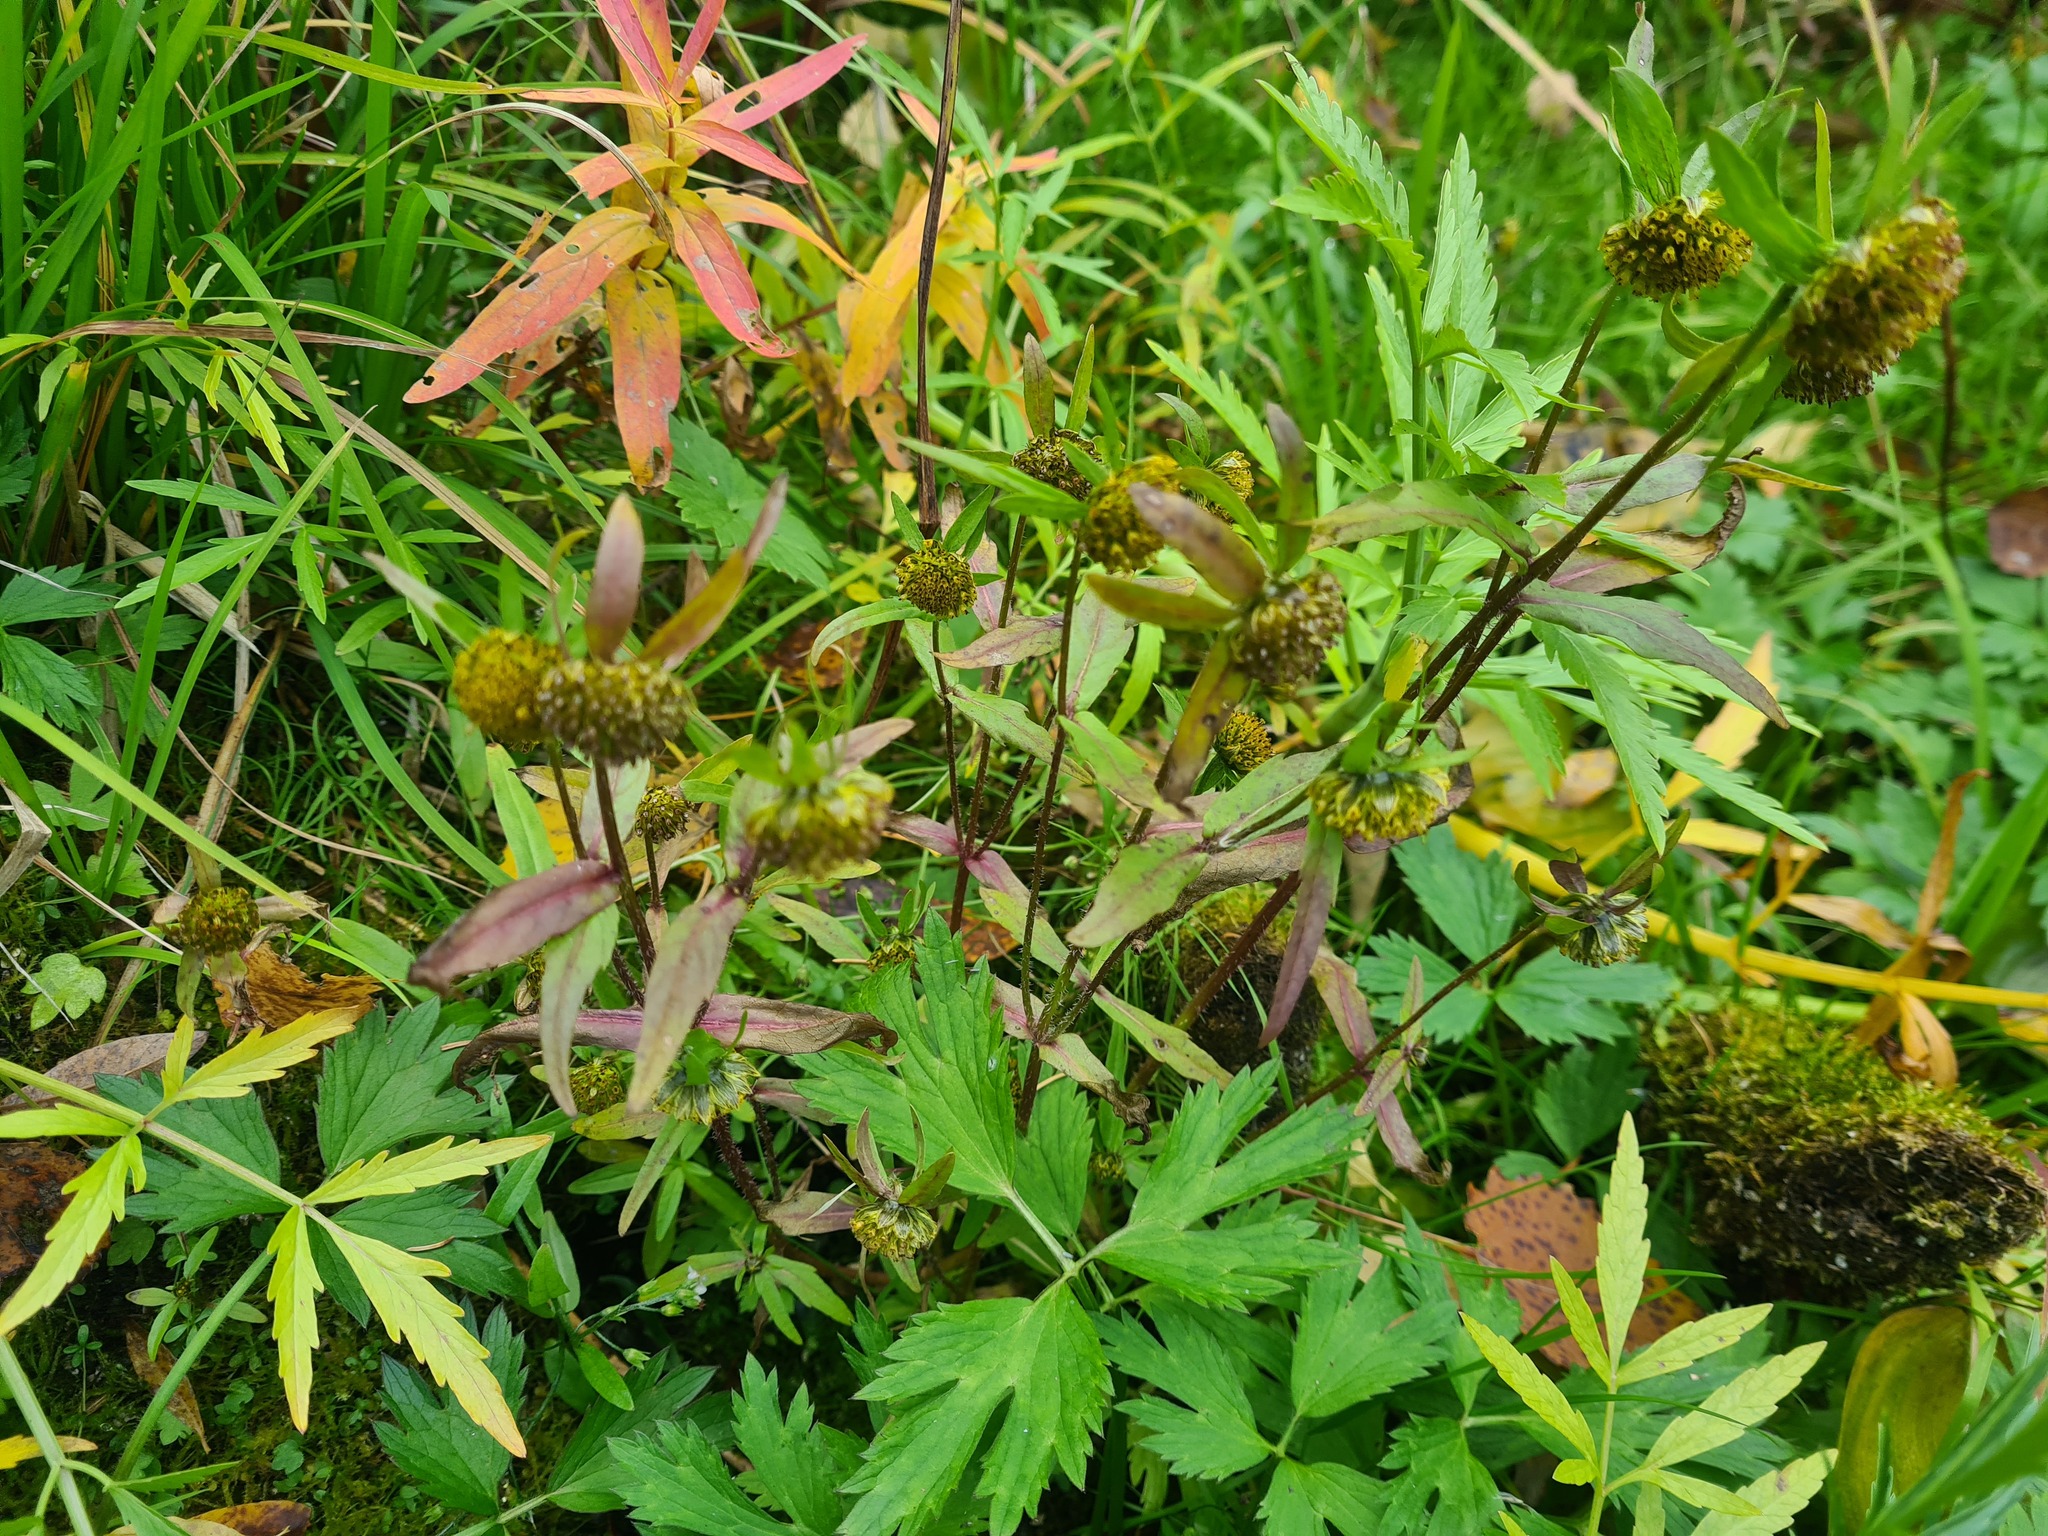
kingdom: Plantae
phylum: Tracheophyta
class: Magnoliopsida
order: Asterales
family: Asteraceae
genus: Bidens
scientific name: Bidens cernua
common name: Nodding bur-marigold
